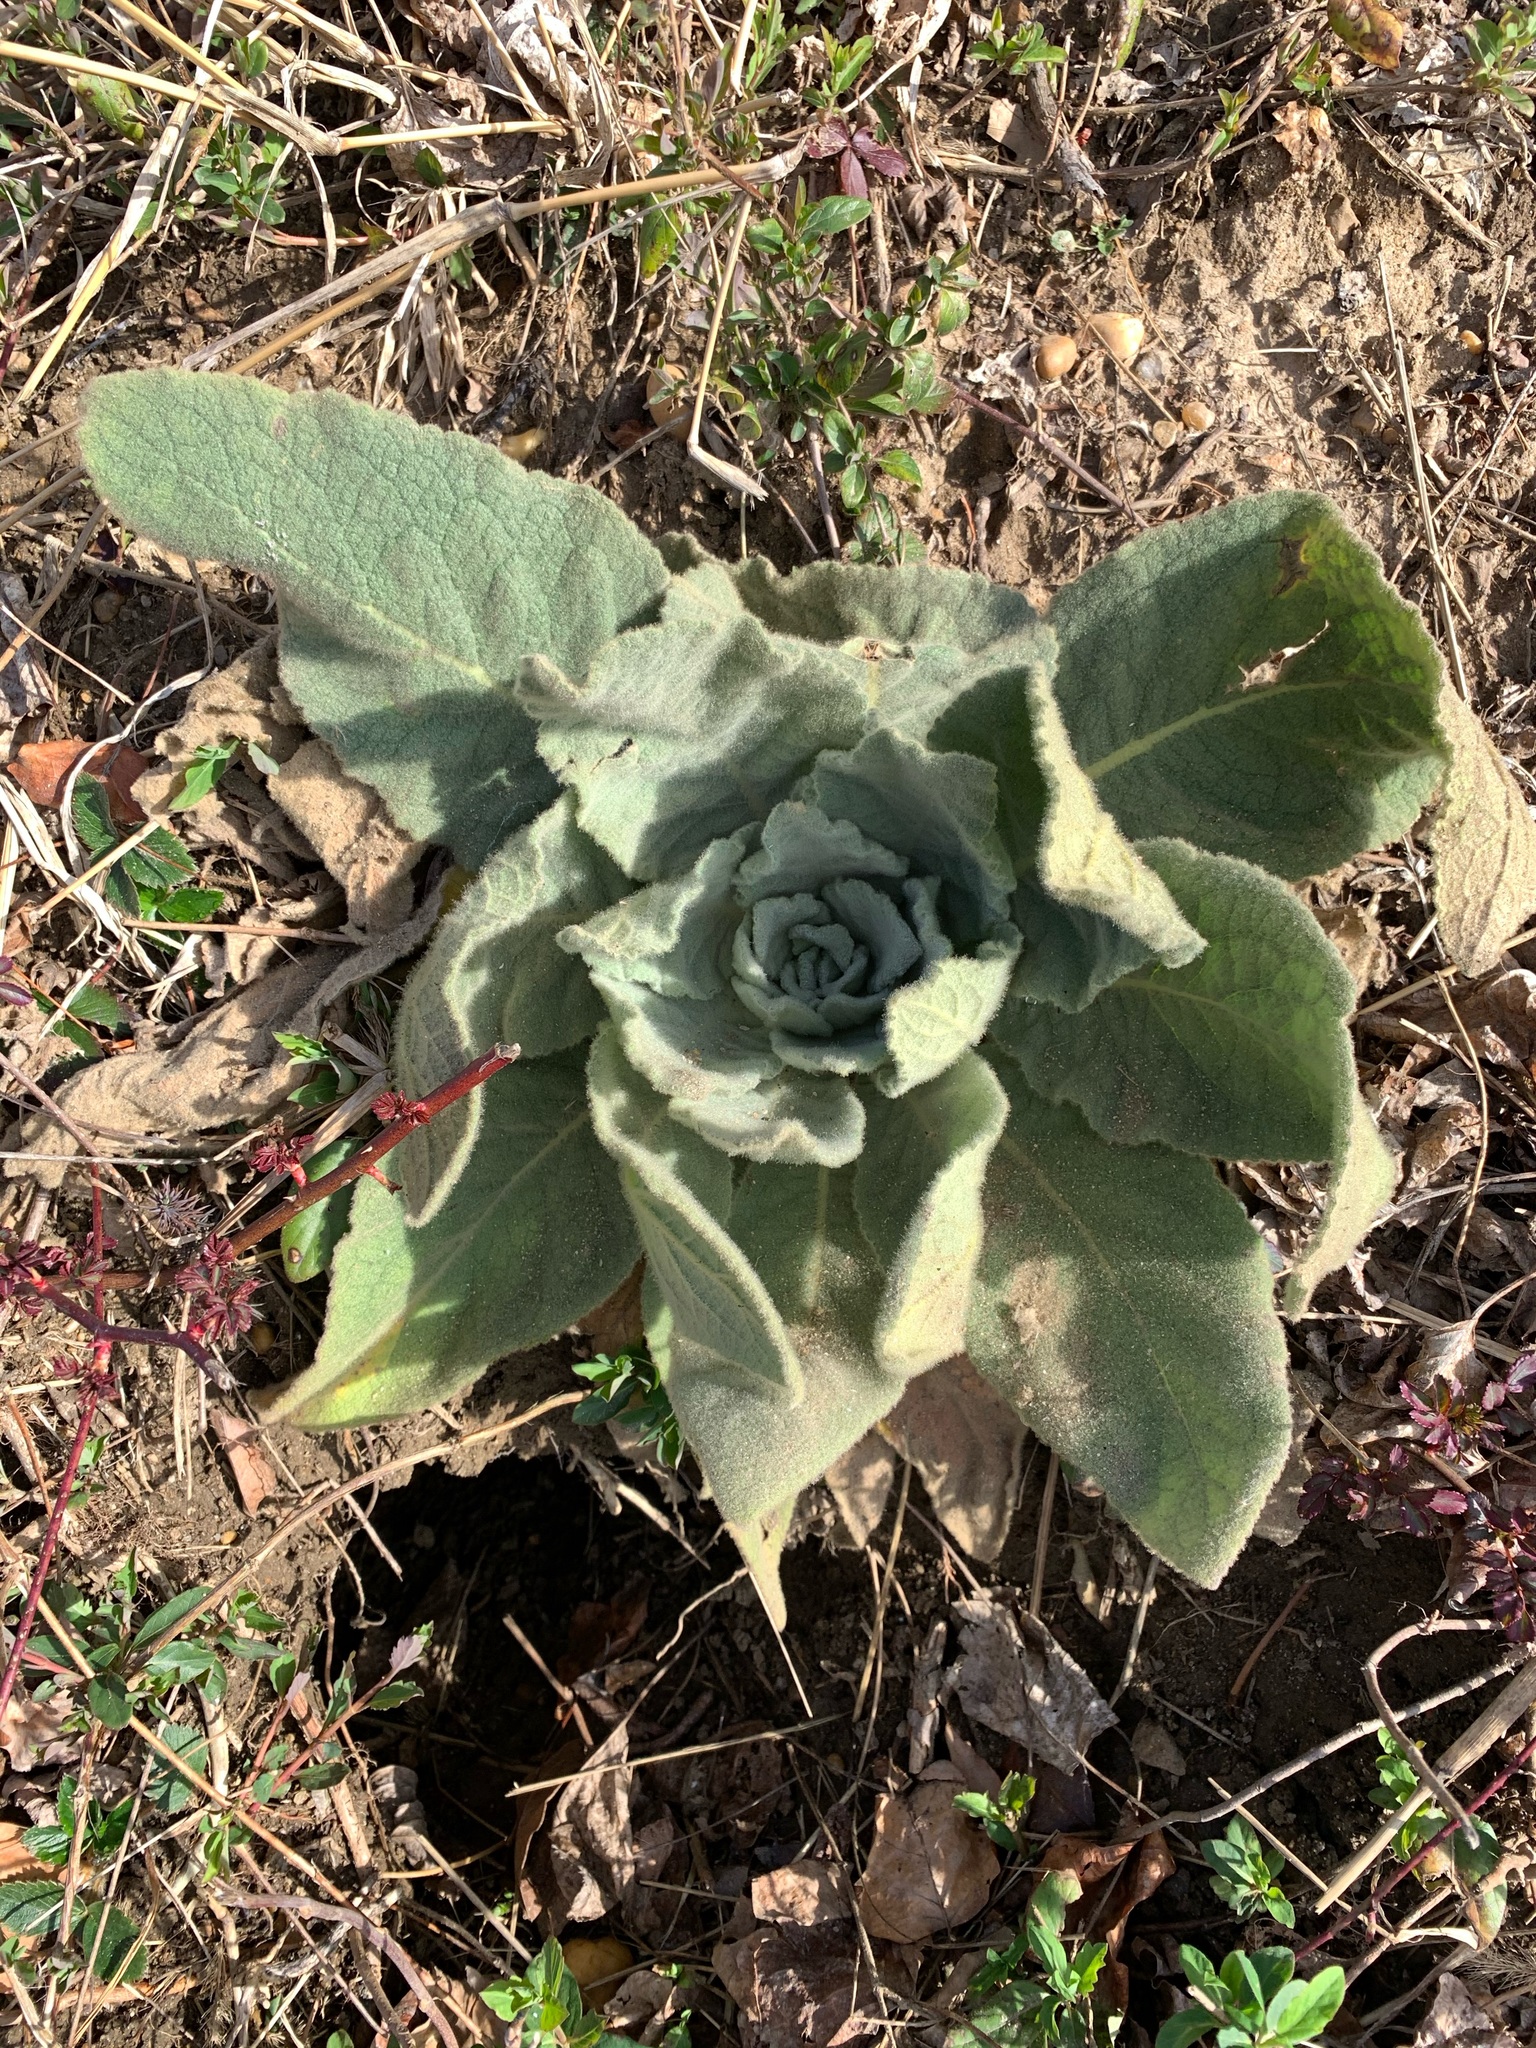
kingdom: Plantae
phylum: Tracheophyta
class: Magnoliopsida
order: Lamiales
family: Scrophulariaceae
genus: Verbascum
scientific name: Verbascum thapsus
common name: Common mullein
